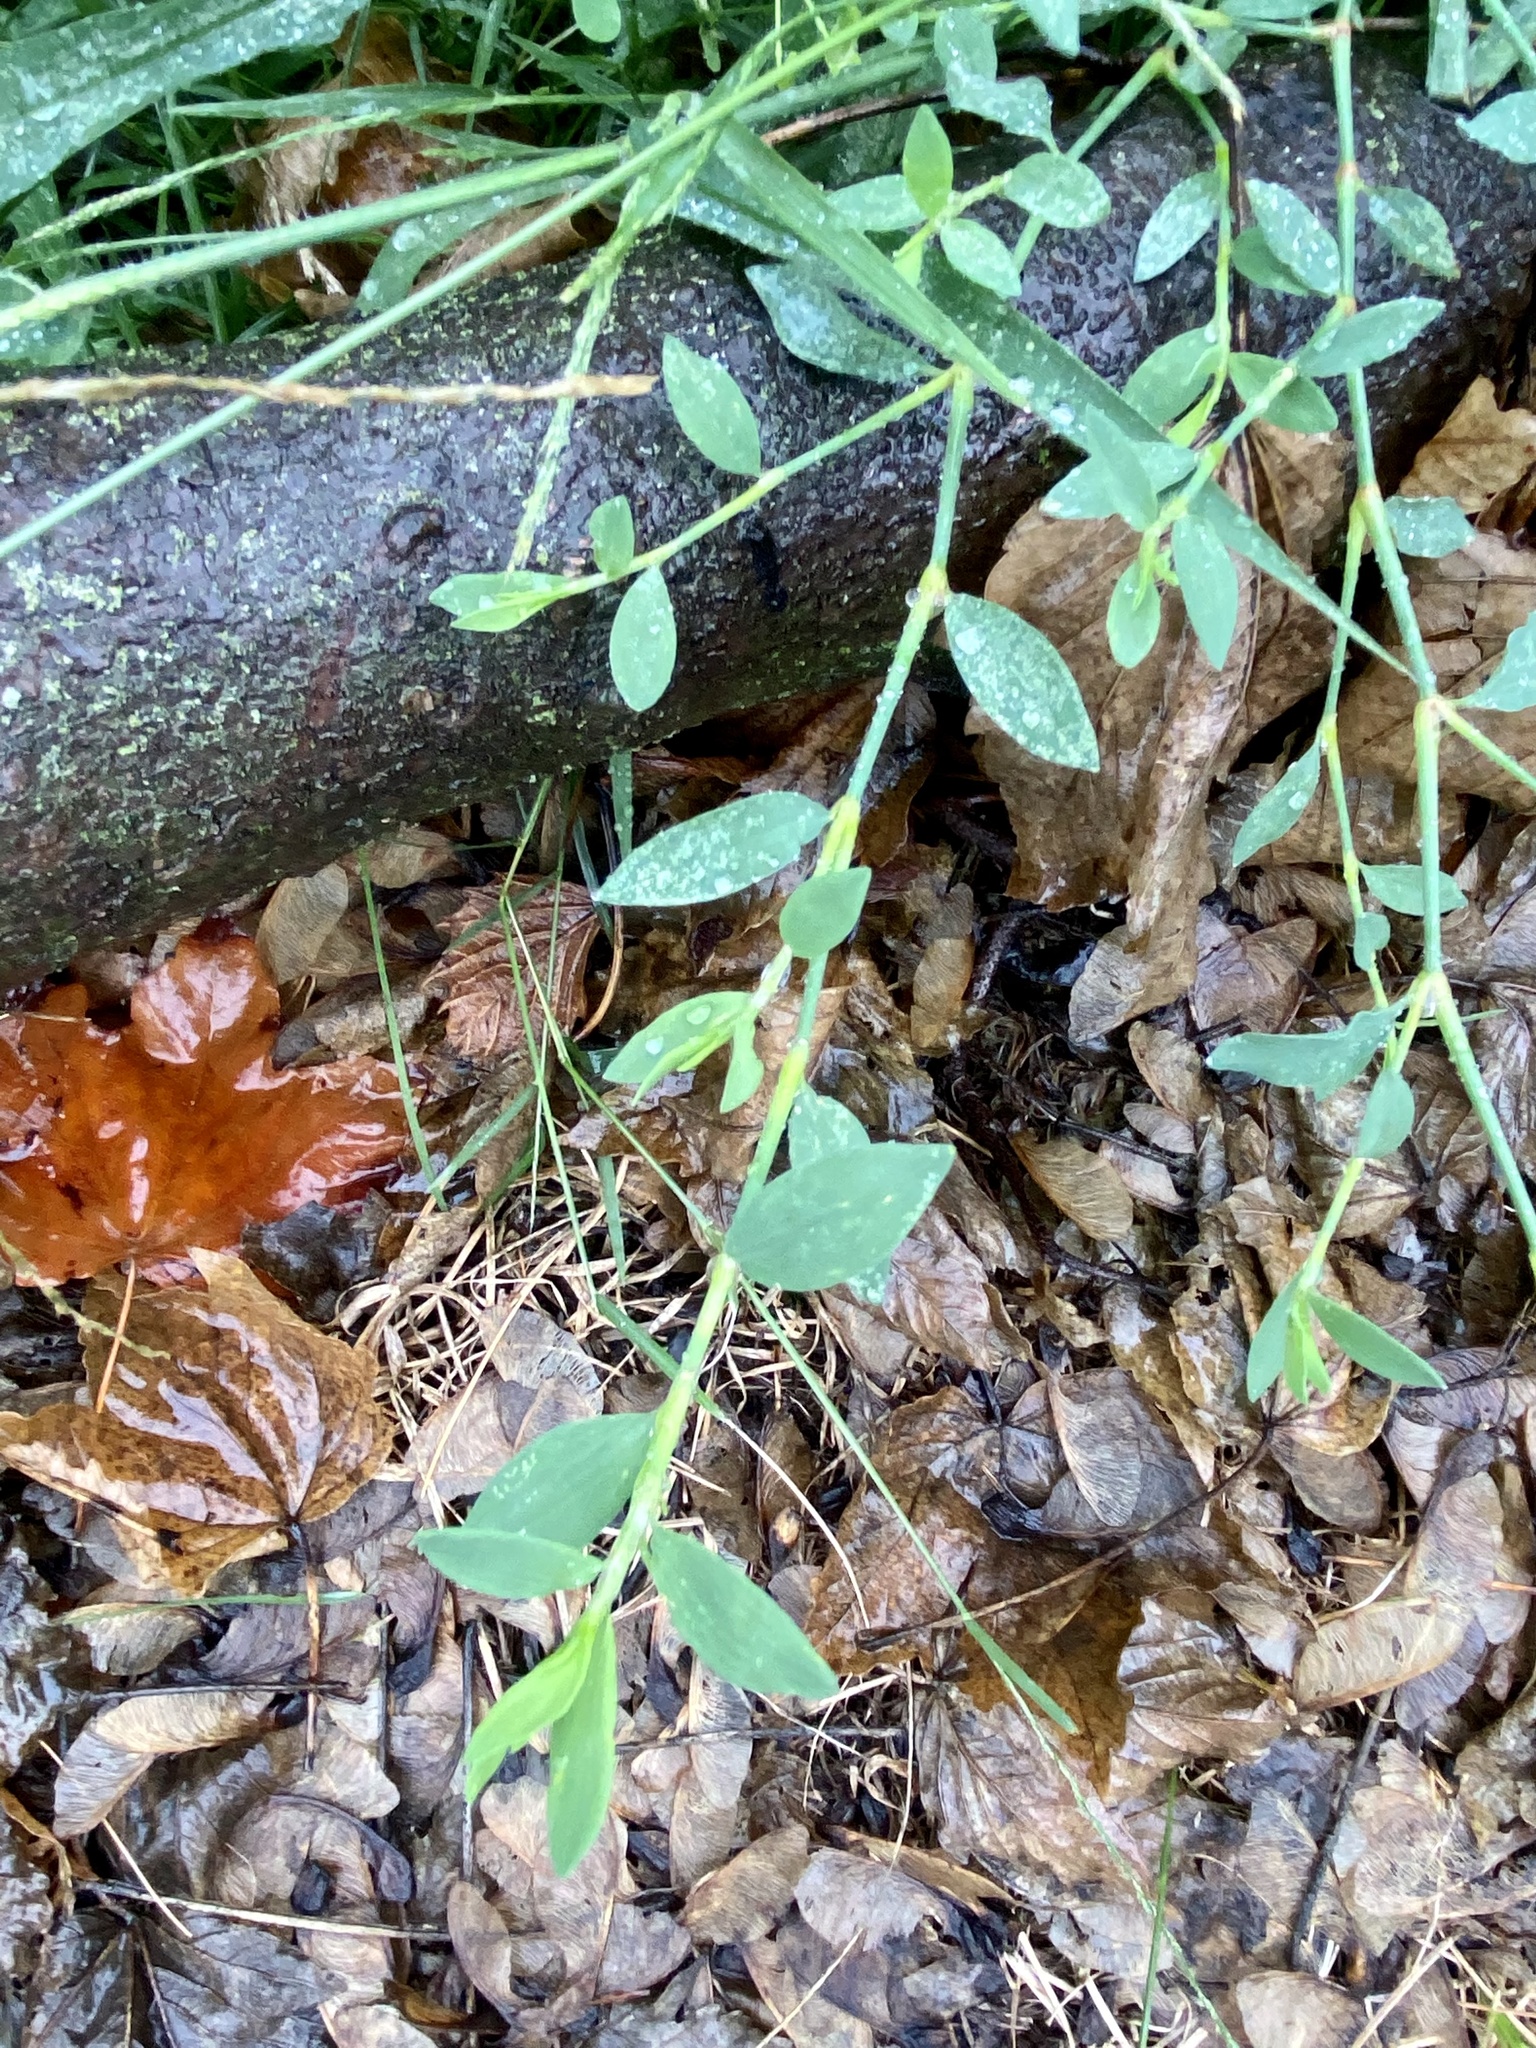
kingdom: Plantae
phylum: Tracheophyta
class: Magnoliopsida
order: Caryophyllales
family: Polygonaceae
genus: Polygonum
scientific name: Polygonum aviculare
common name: Prostrate knotweed
